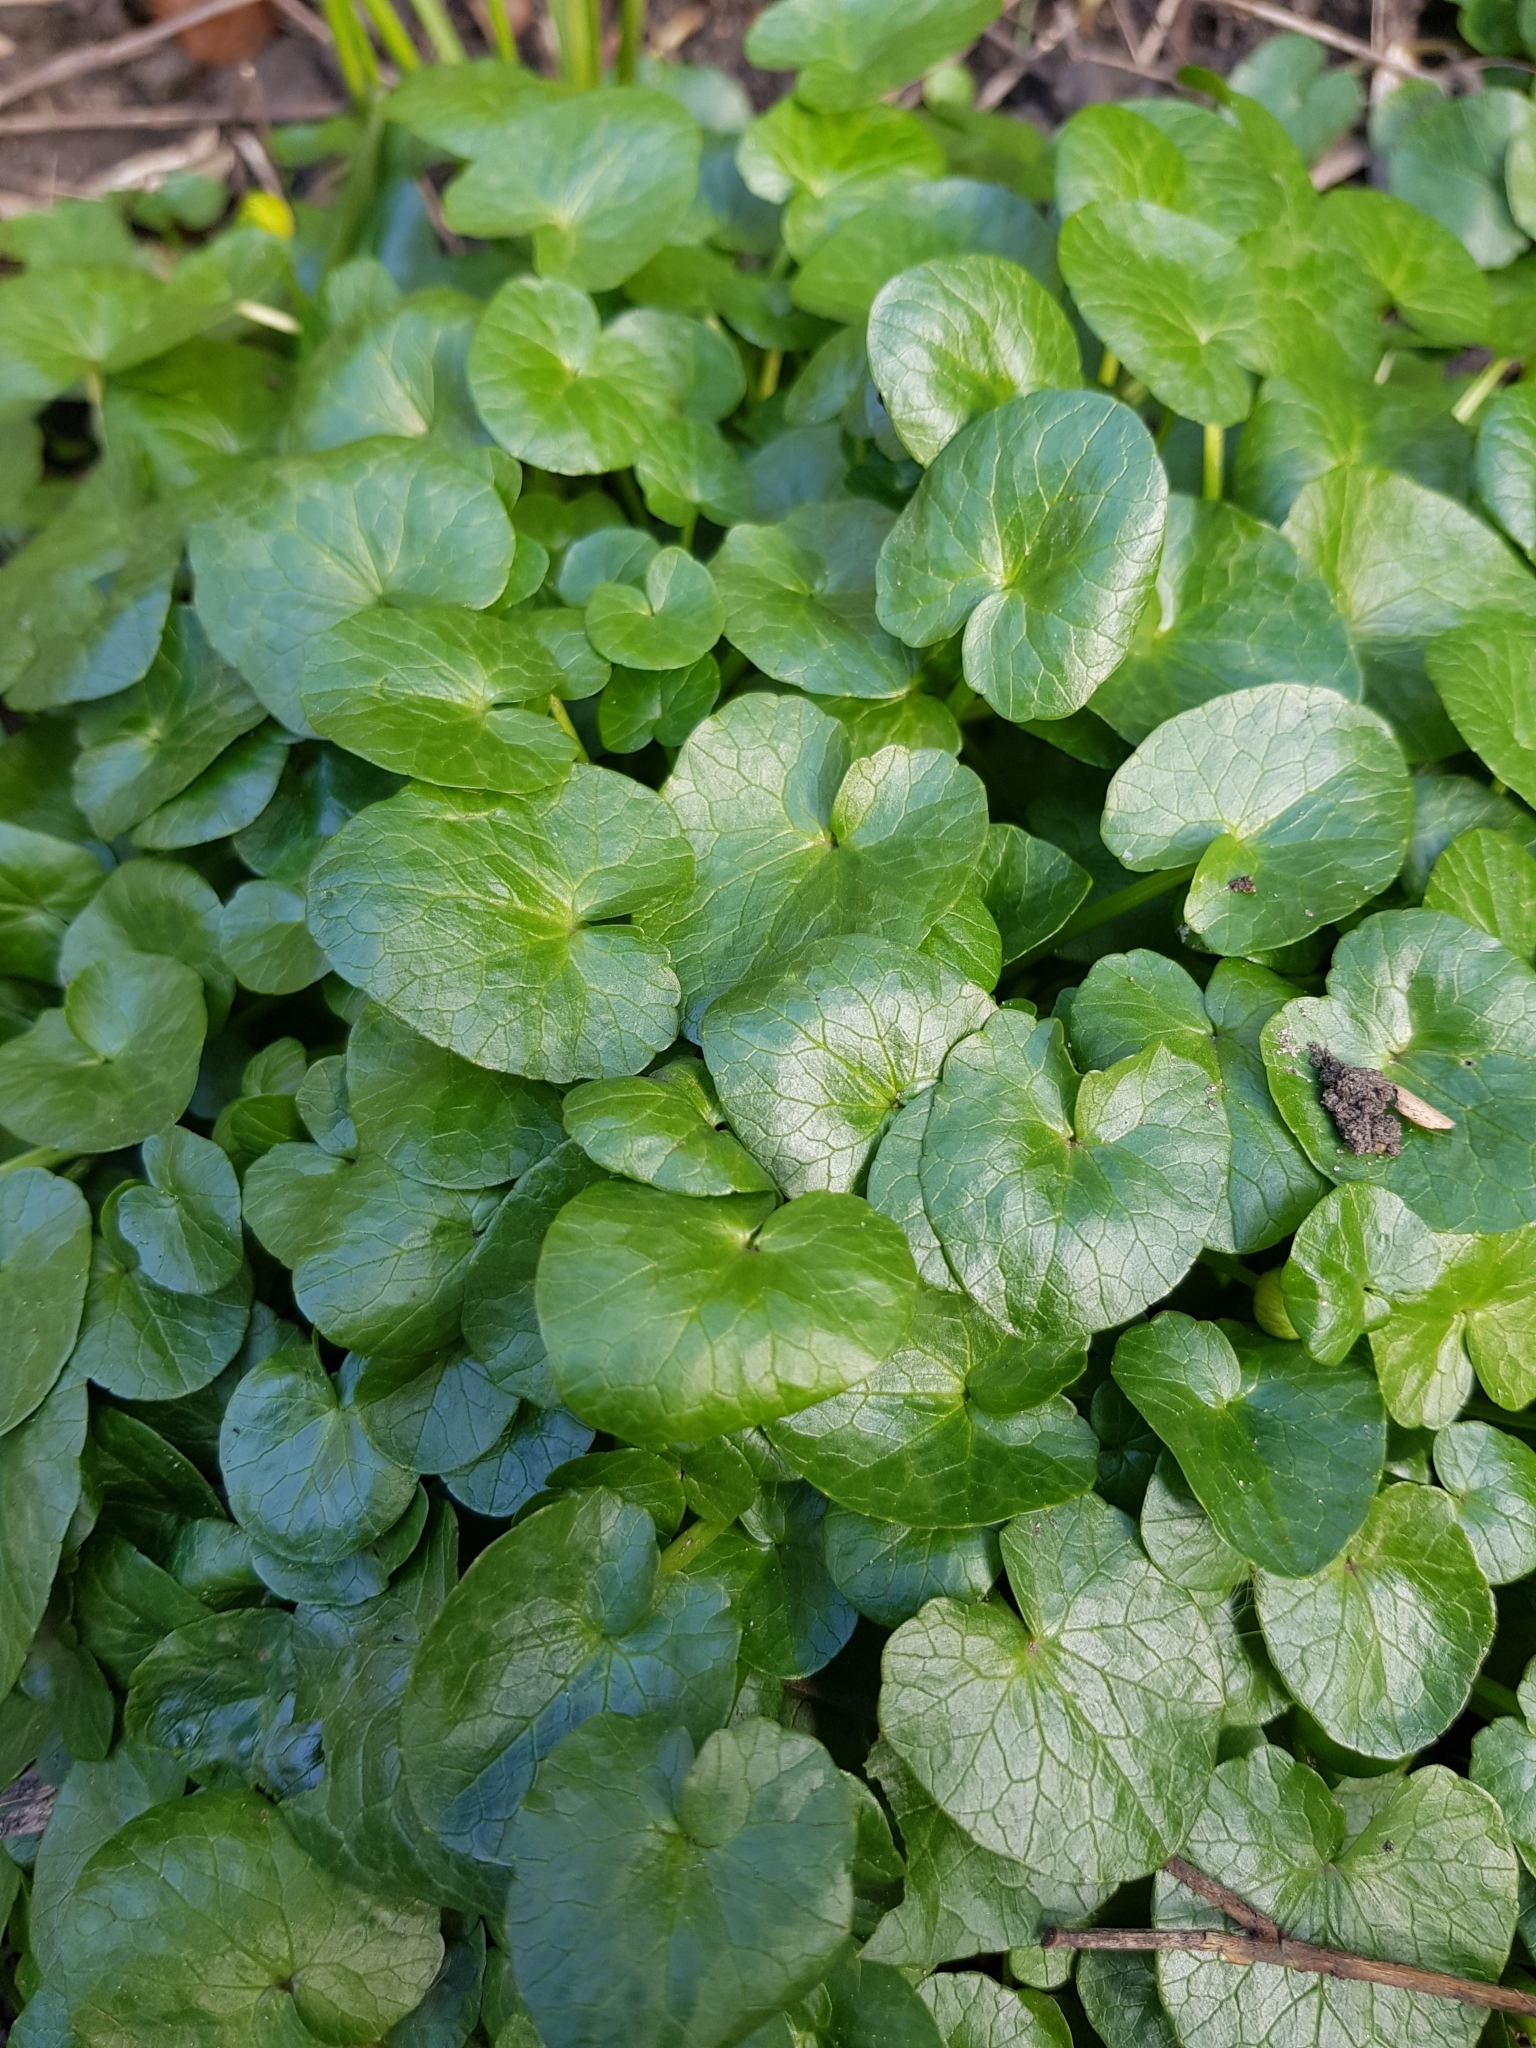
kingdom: Plantae
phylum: Tracheophyta
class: Magnoliopsida
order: Ranunculales
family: Ranunculaceae
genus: Ficaria
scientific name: Ficaria verna
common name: Lesser celandine
